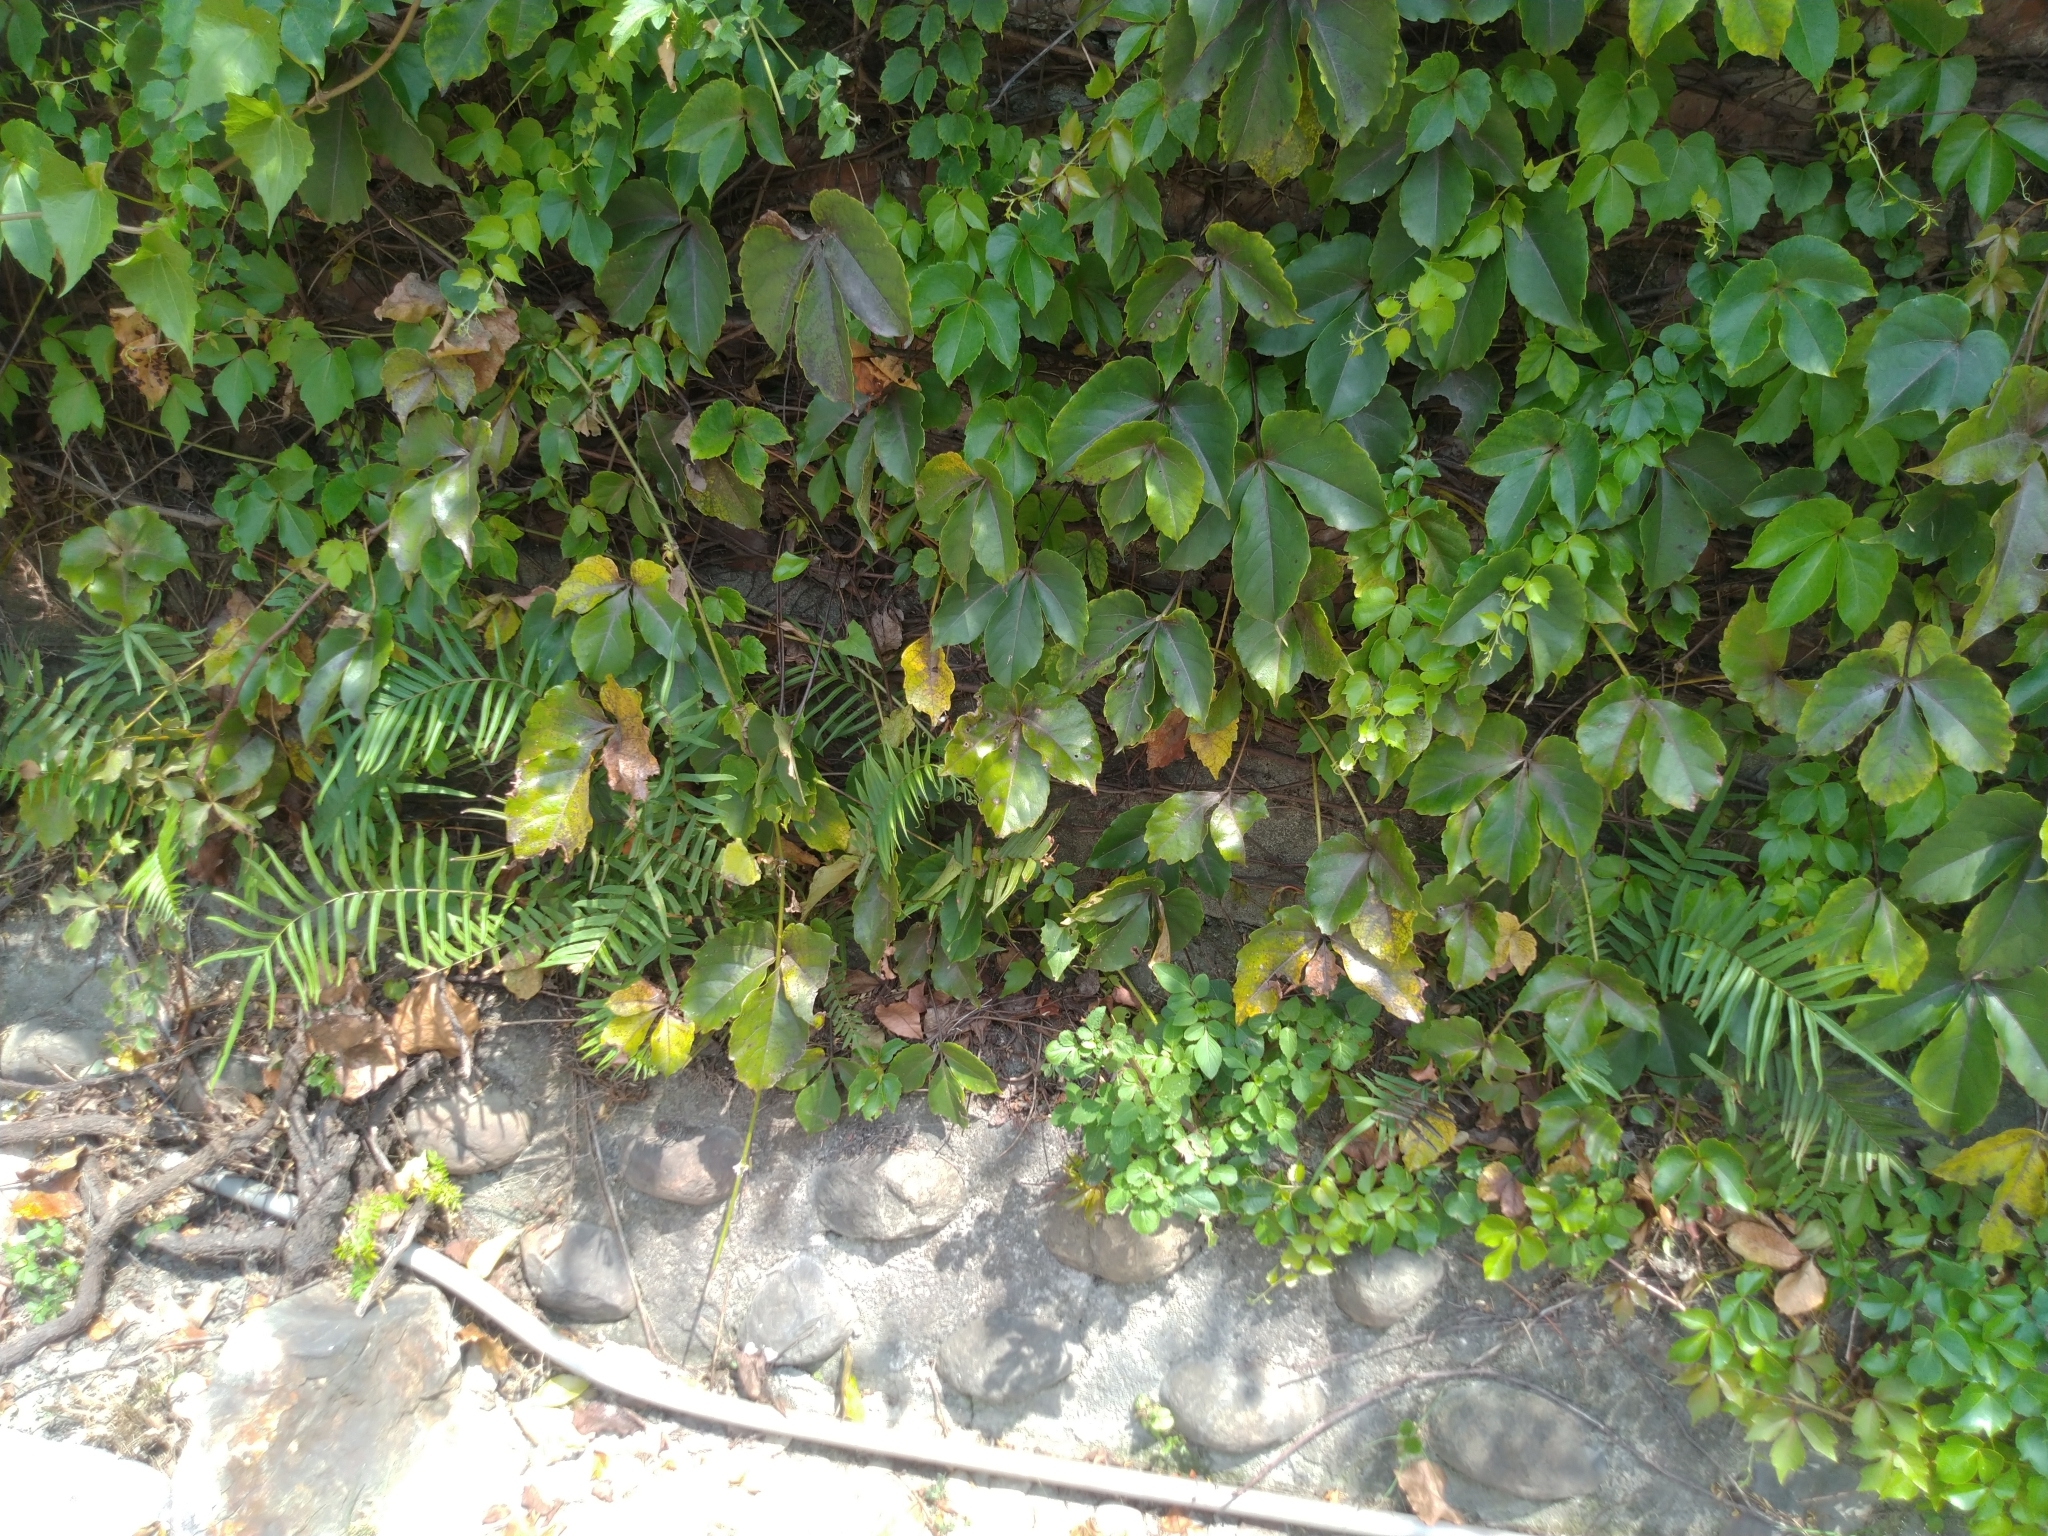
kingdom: Plantae
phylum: Tracheophyta
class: Polypodiopsida
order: Polypodiales
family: Pteridaceae
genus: Pteris
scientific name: Pteris vittata
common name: Ladder brake
